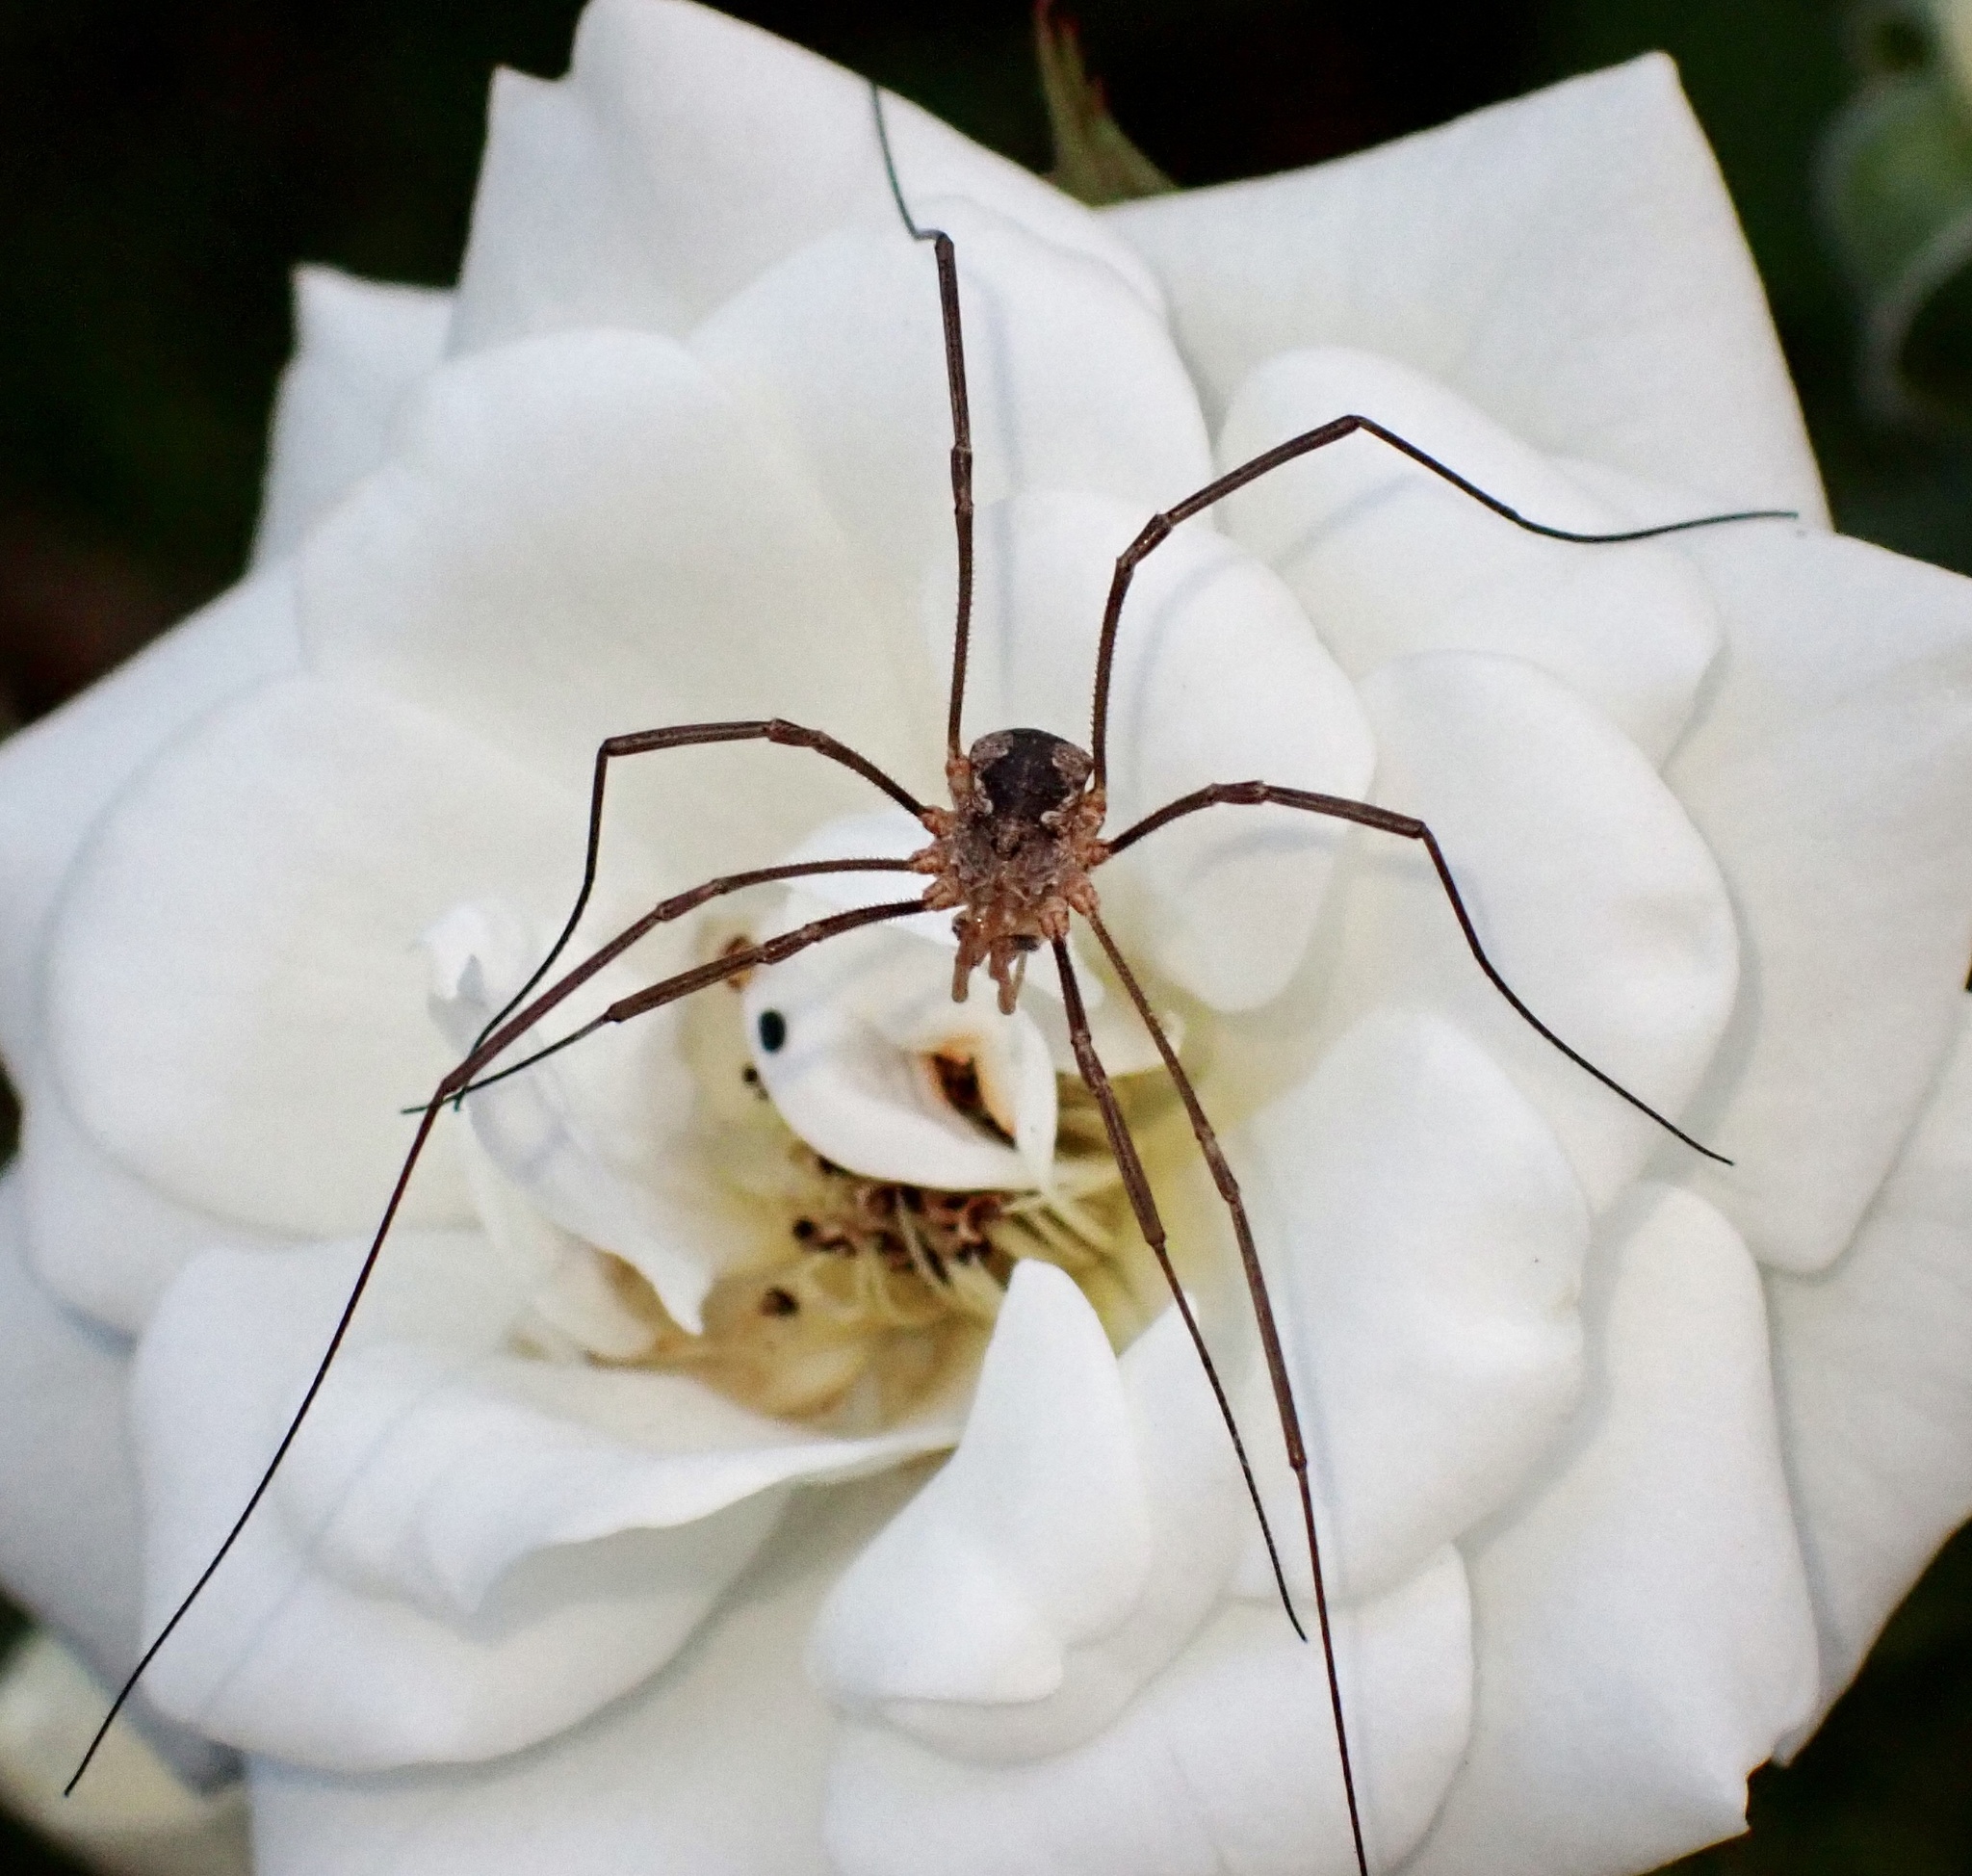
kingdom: Animalia
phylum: Arthropoda
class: Arachnida
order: Opiliones
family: Phalangiidae
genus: Phalangium
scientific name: Phalangium opilio
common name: Daddy longleg
